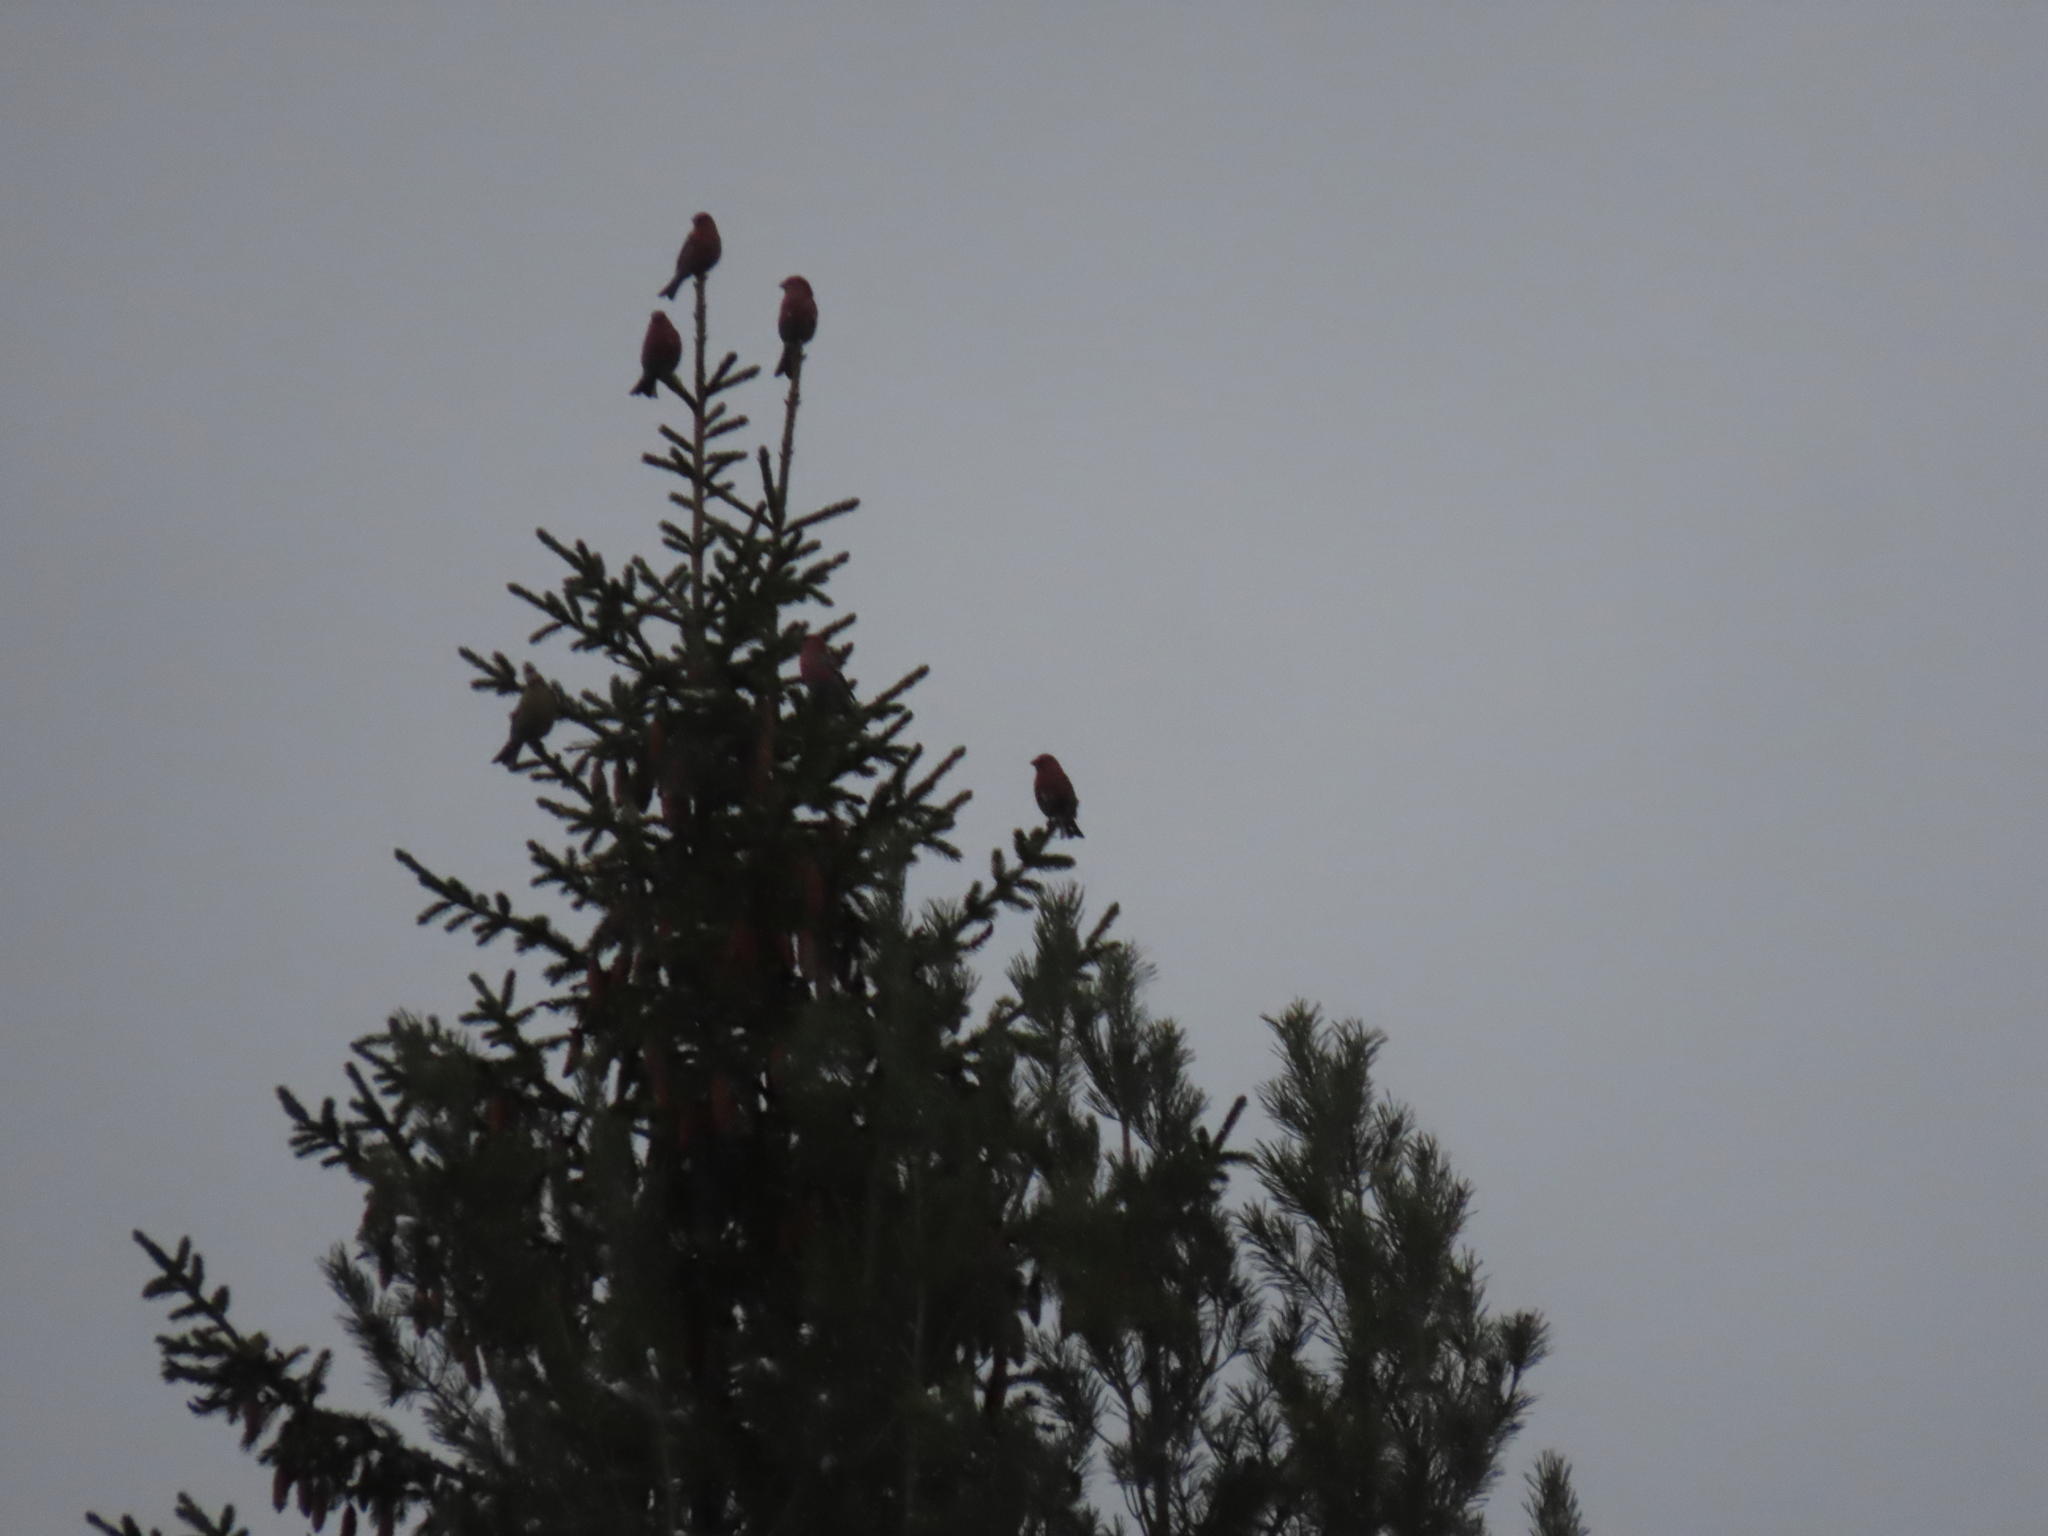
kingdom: Animalia
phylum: Chordata
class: Aves
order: Passeriformes
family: Fringillidae
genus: Pinicola
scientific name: Pinicola enucleator
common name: Pine grosbeak
